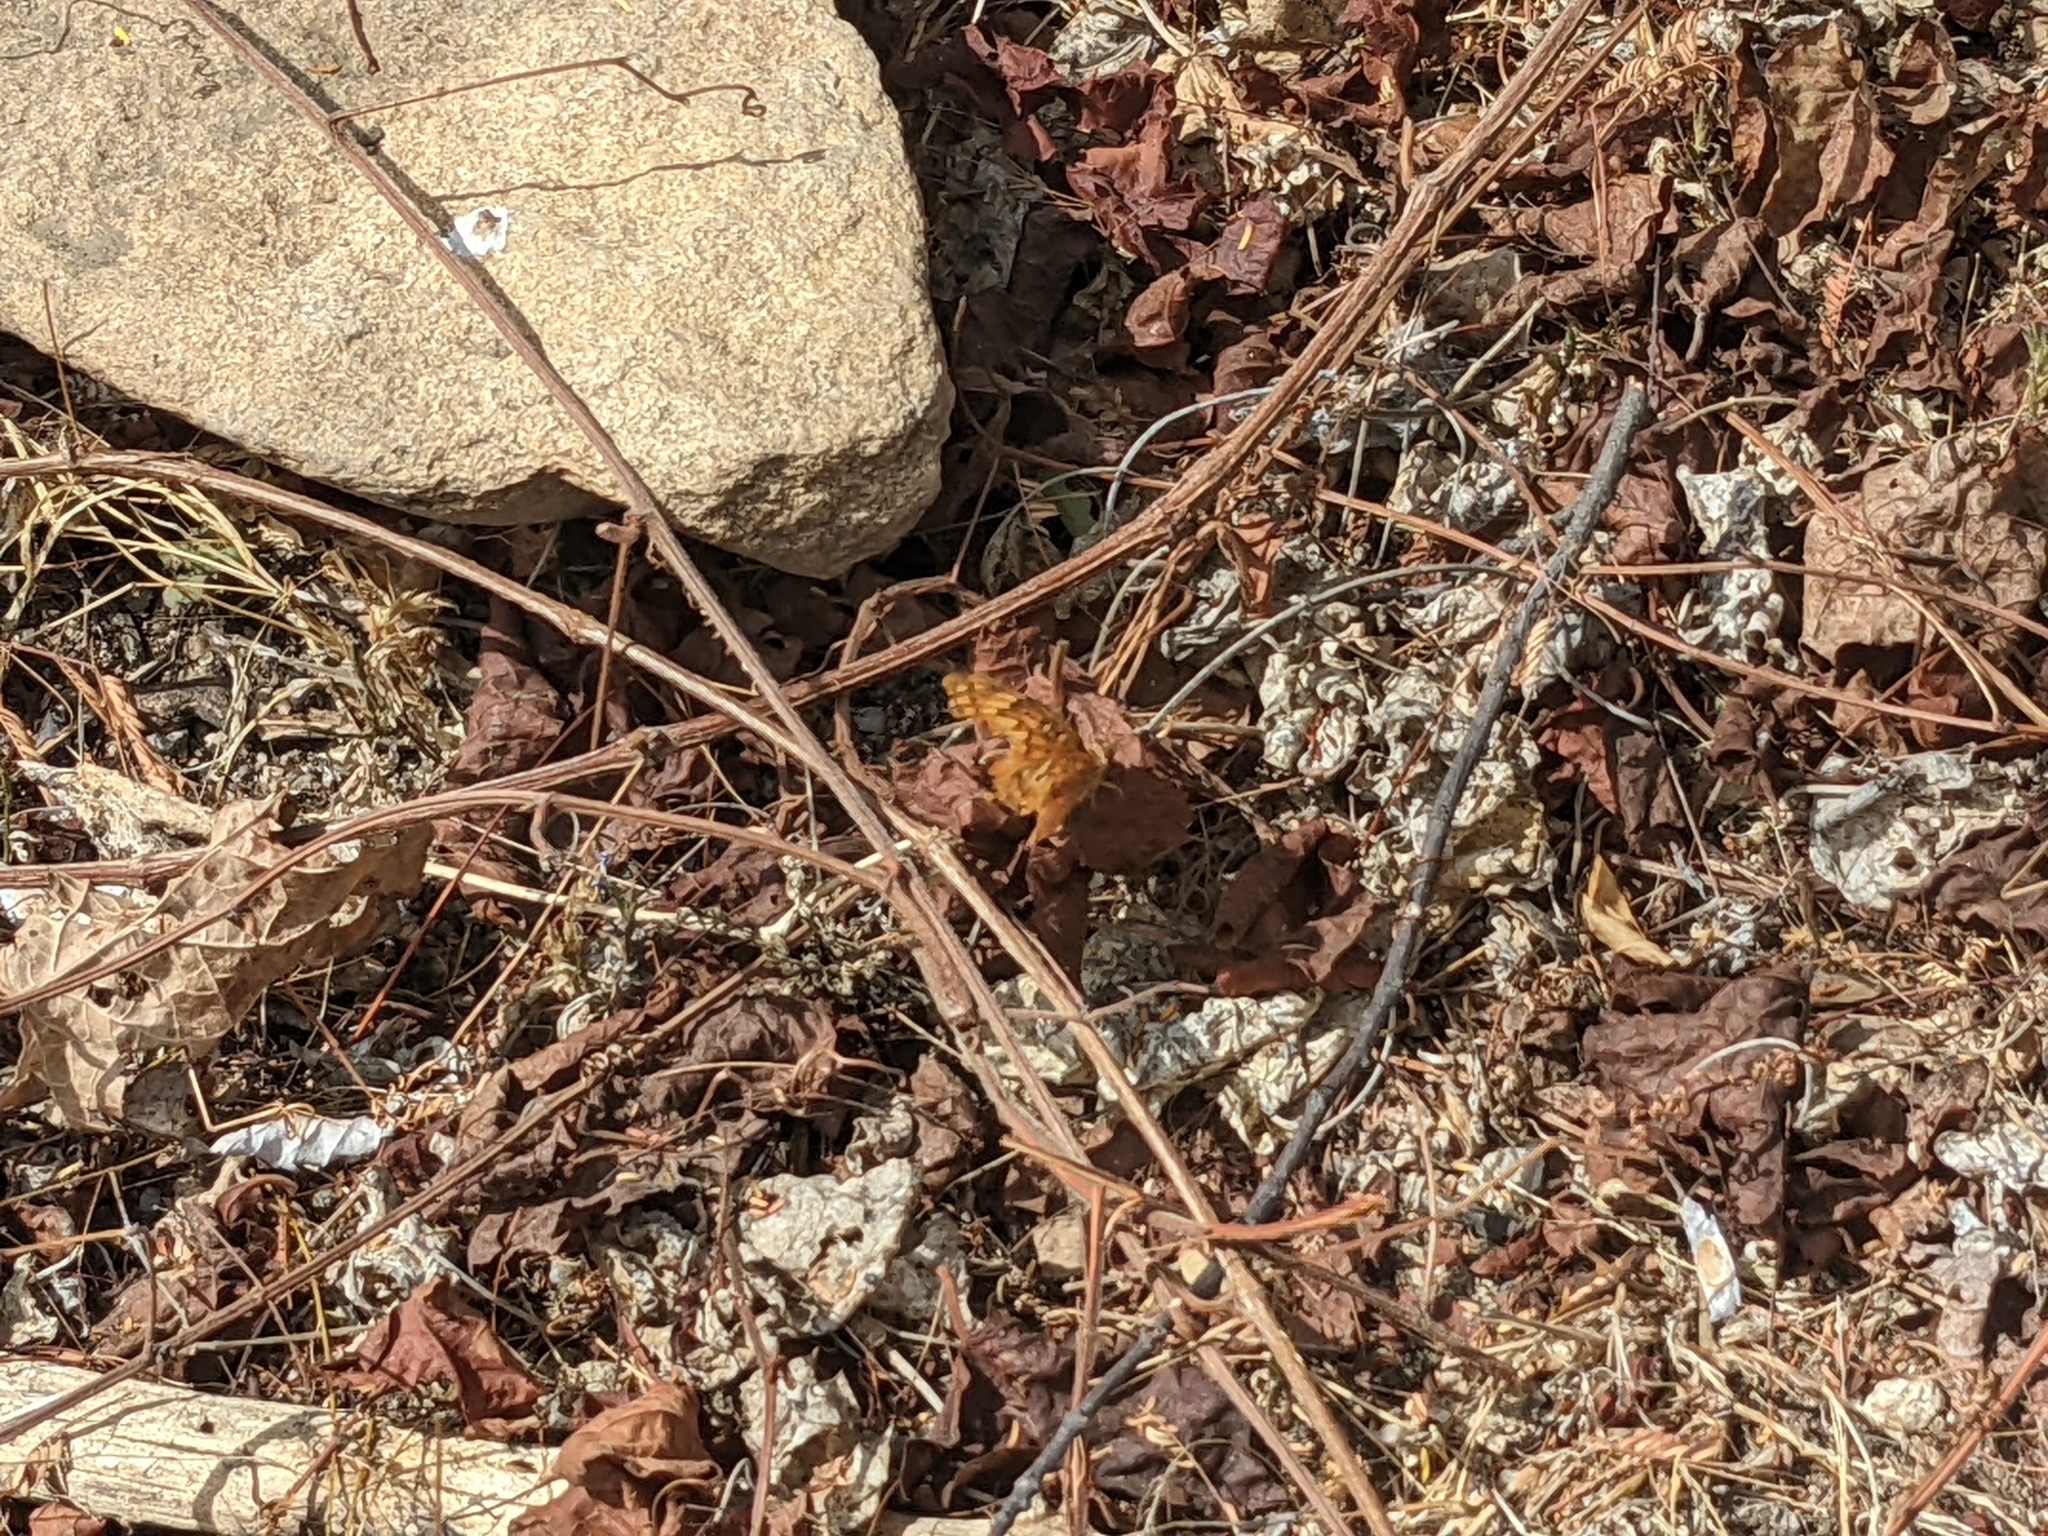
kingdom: Animalia
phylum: Arthropoda
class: Insecta
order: Lepidoptera
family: Nymphalidae
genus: Euptoieta
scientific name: Euptoieta hegesia
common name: Mexican fritillary
